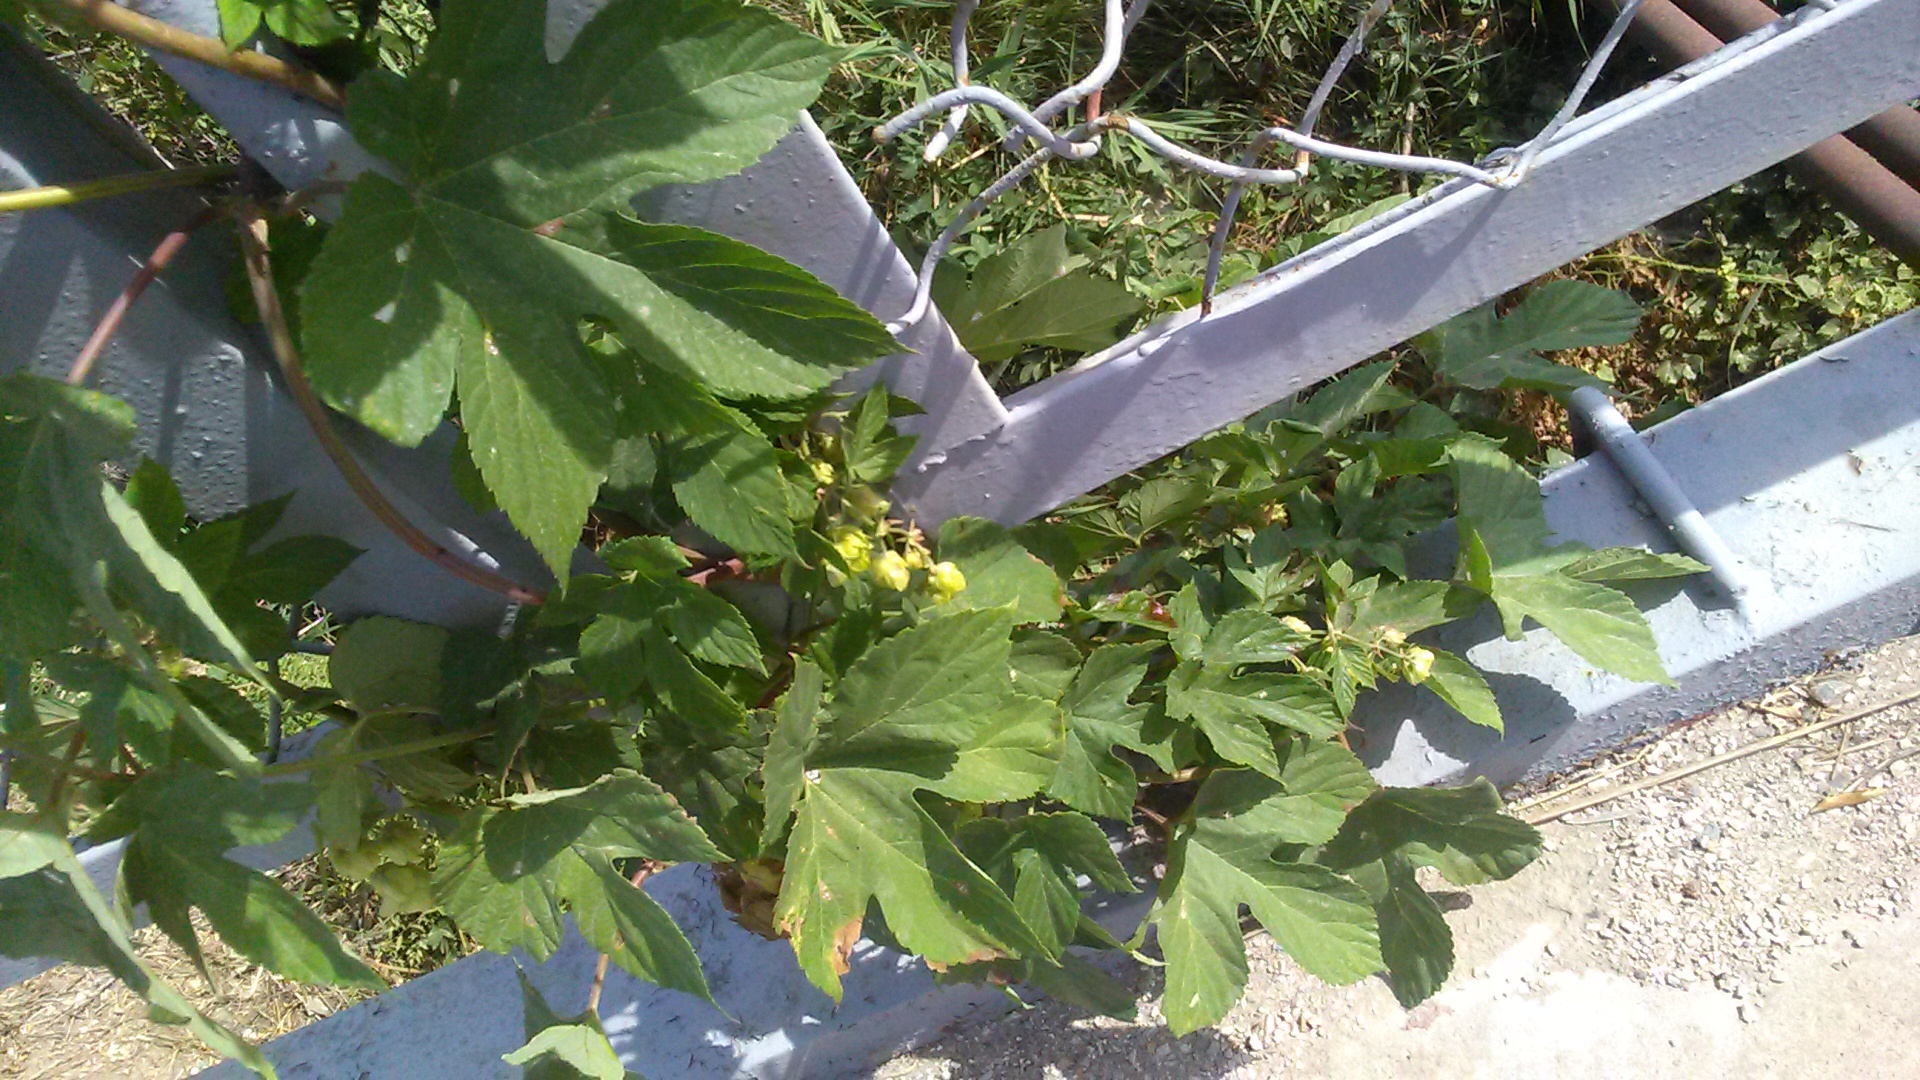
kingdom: Plantae
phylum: Tracheophyta
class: Magnoliopsida
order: Rosales
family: Cannabaceae
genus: Humulus
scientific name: Humulus lupulus
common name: Hop
